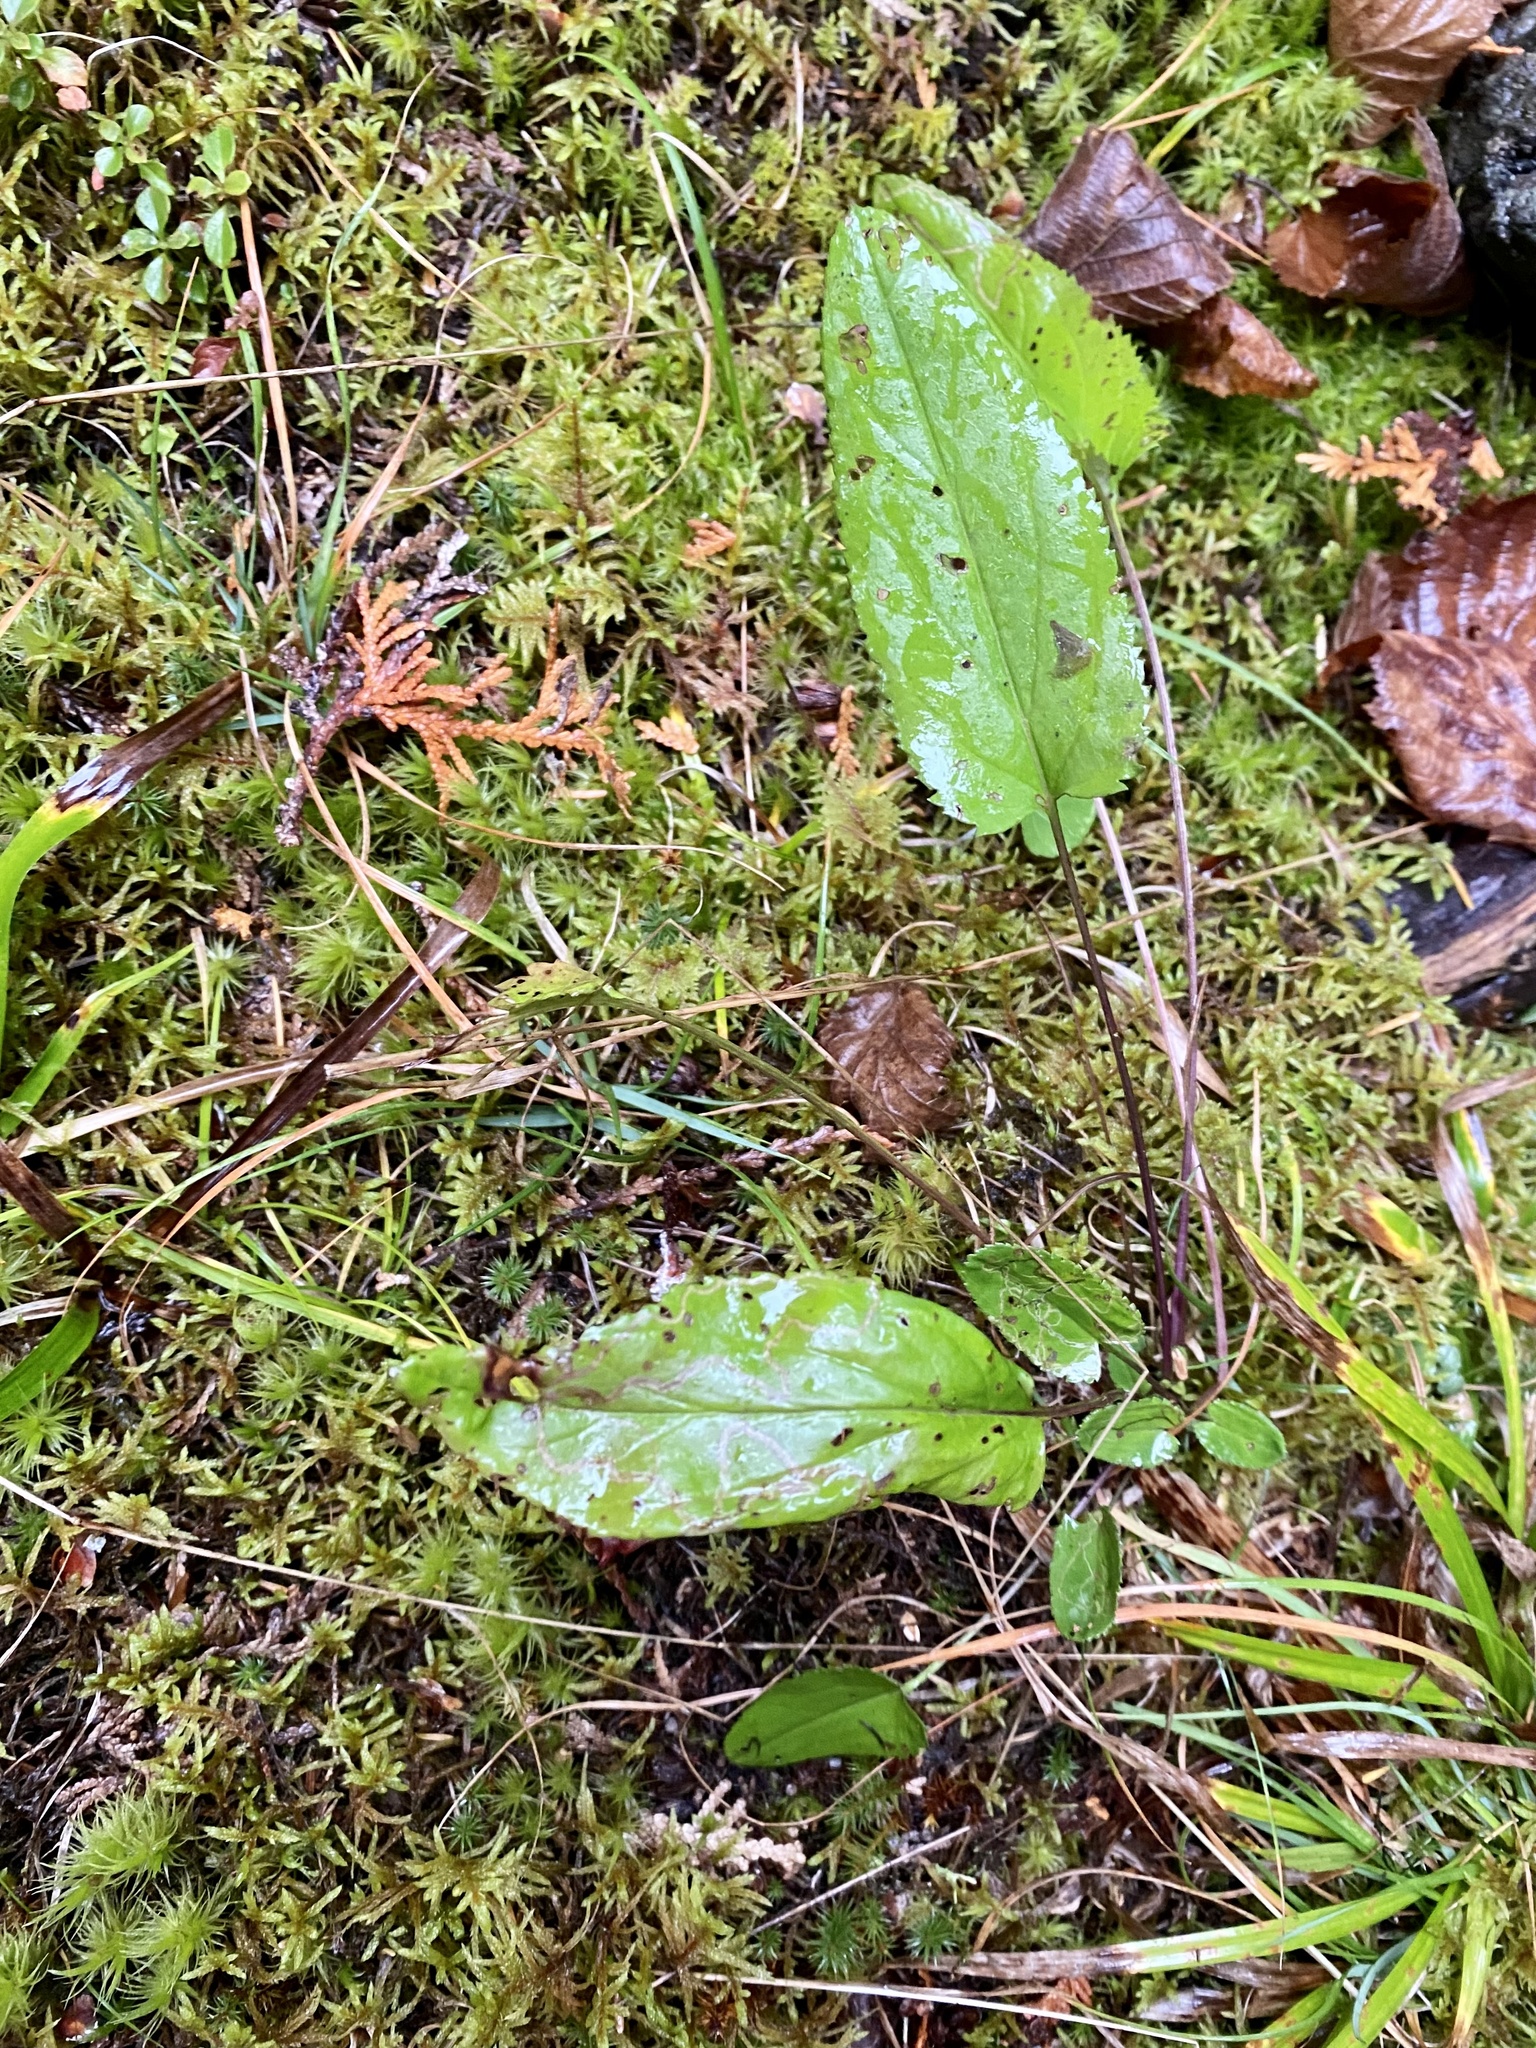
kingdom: Plantae
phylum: Tracheophyta
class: Magnoliopsida
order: Asterales
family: Asteraceae
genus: Packera
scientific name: Packera schweinitziana
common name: Schweinitz's ragwort
